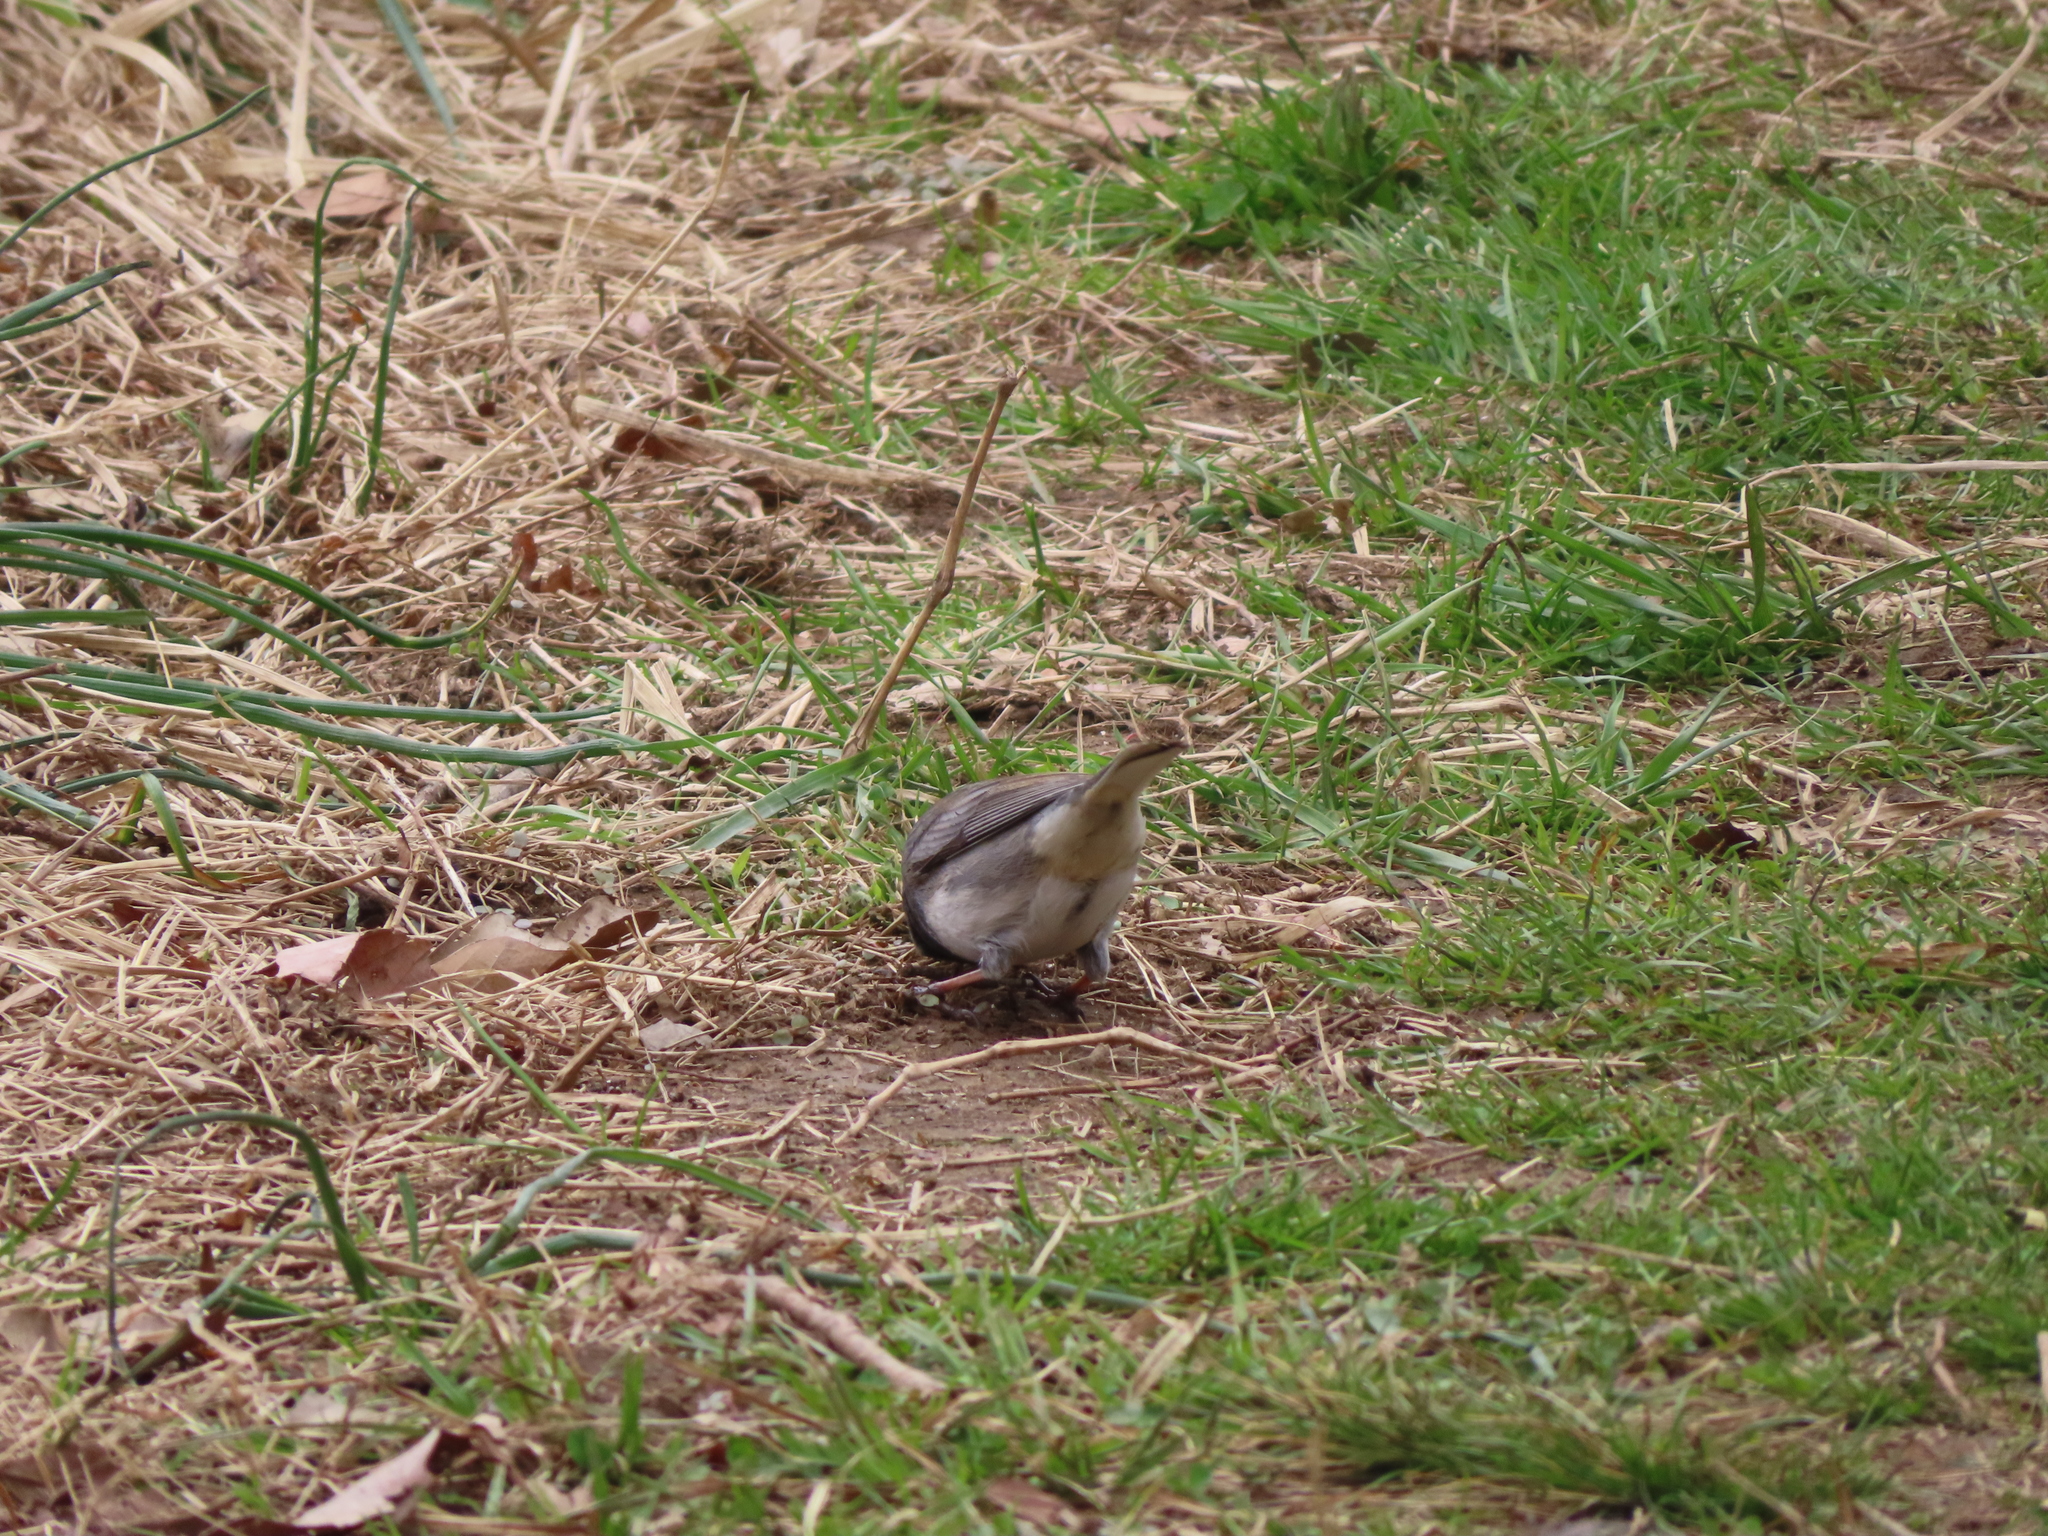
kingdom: Animalia
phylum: Chordata
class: Aves
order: Passeriformes
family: Passerellidae
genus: Junco
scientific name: Junco hyemalis
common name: Dark-eyed junco
